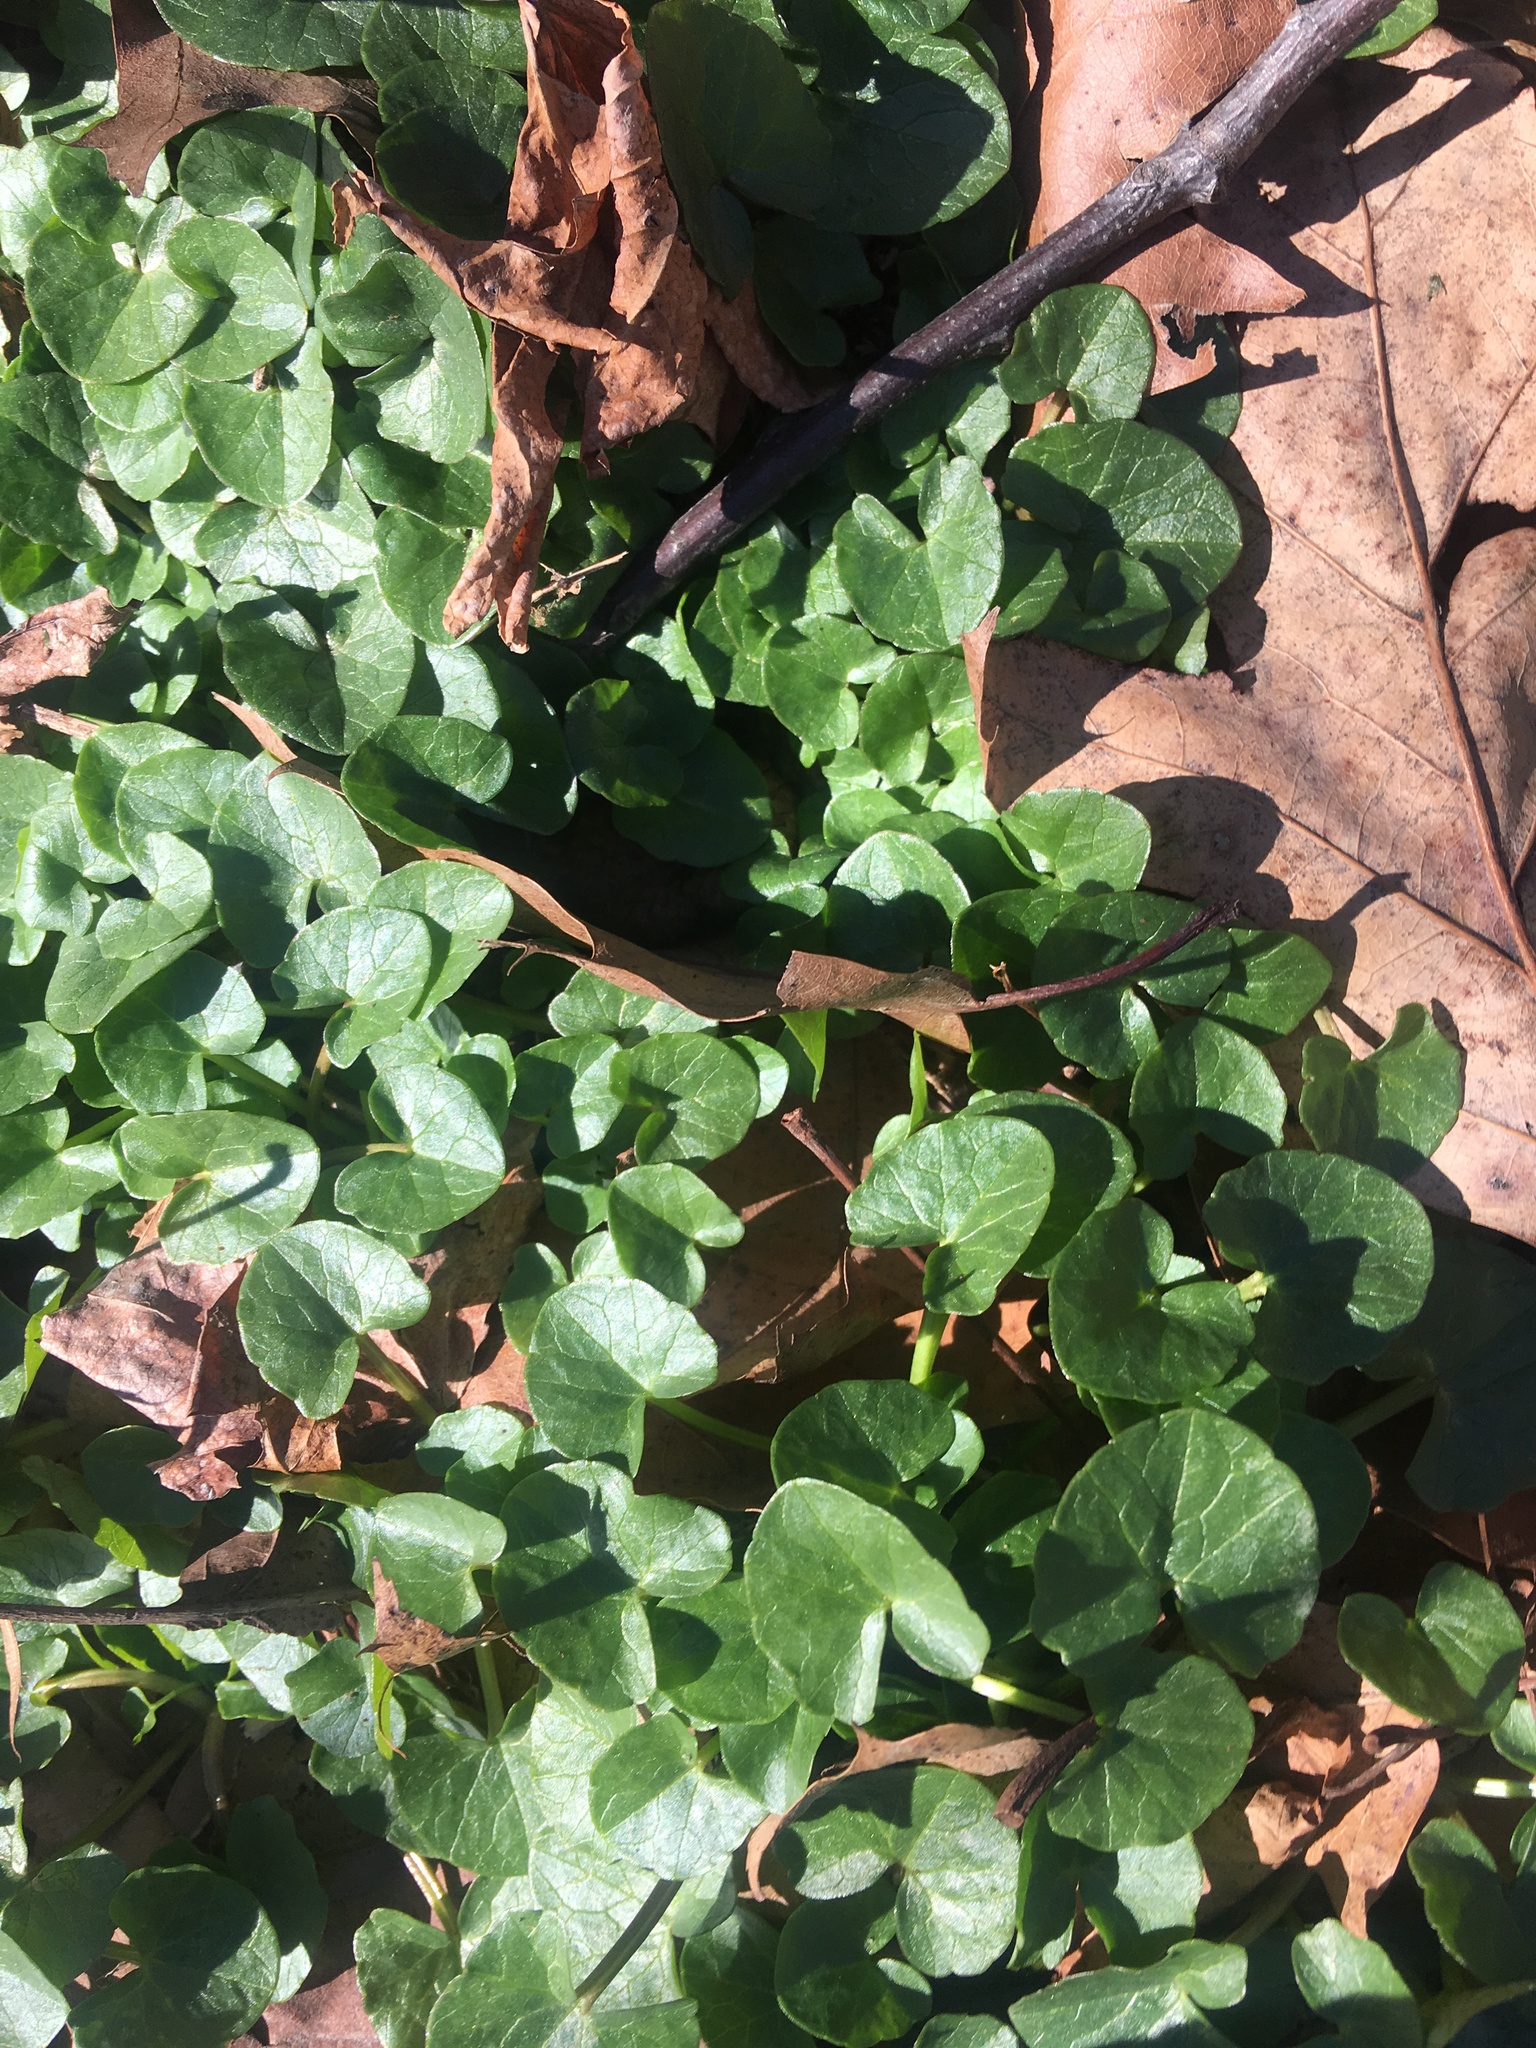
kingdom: Plantae
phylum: Tracheophyta
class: Magnoliopsida
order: Ranunculales
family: Ranunculaceae
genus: Ficaria
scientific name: Ficaria verna
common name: Lesser celandine
